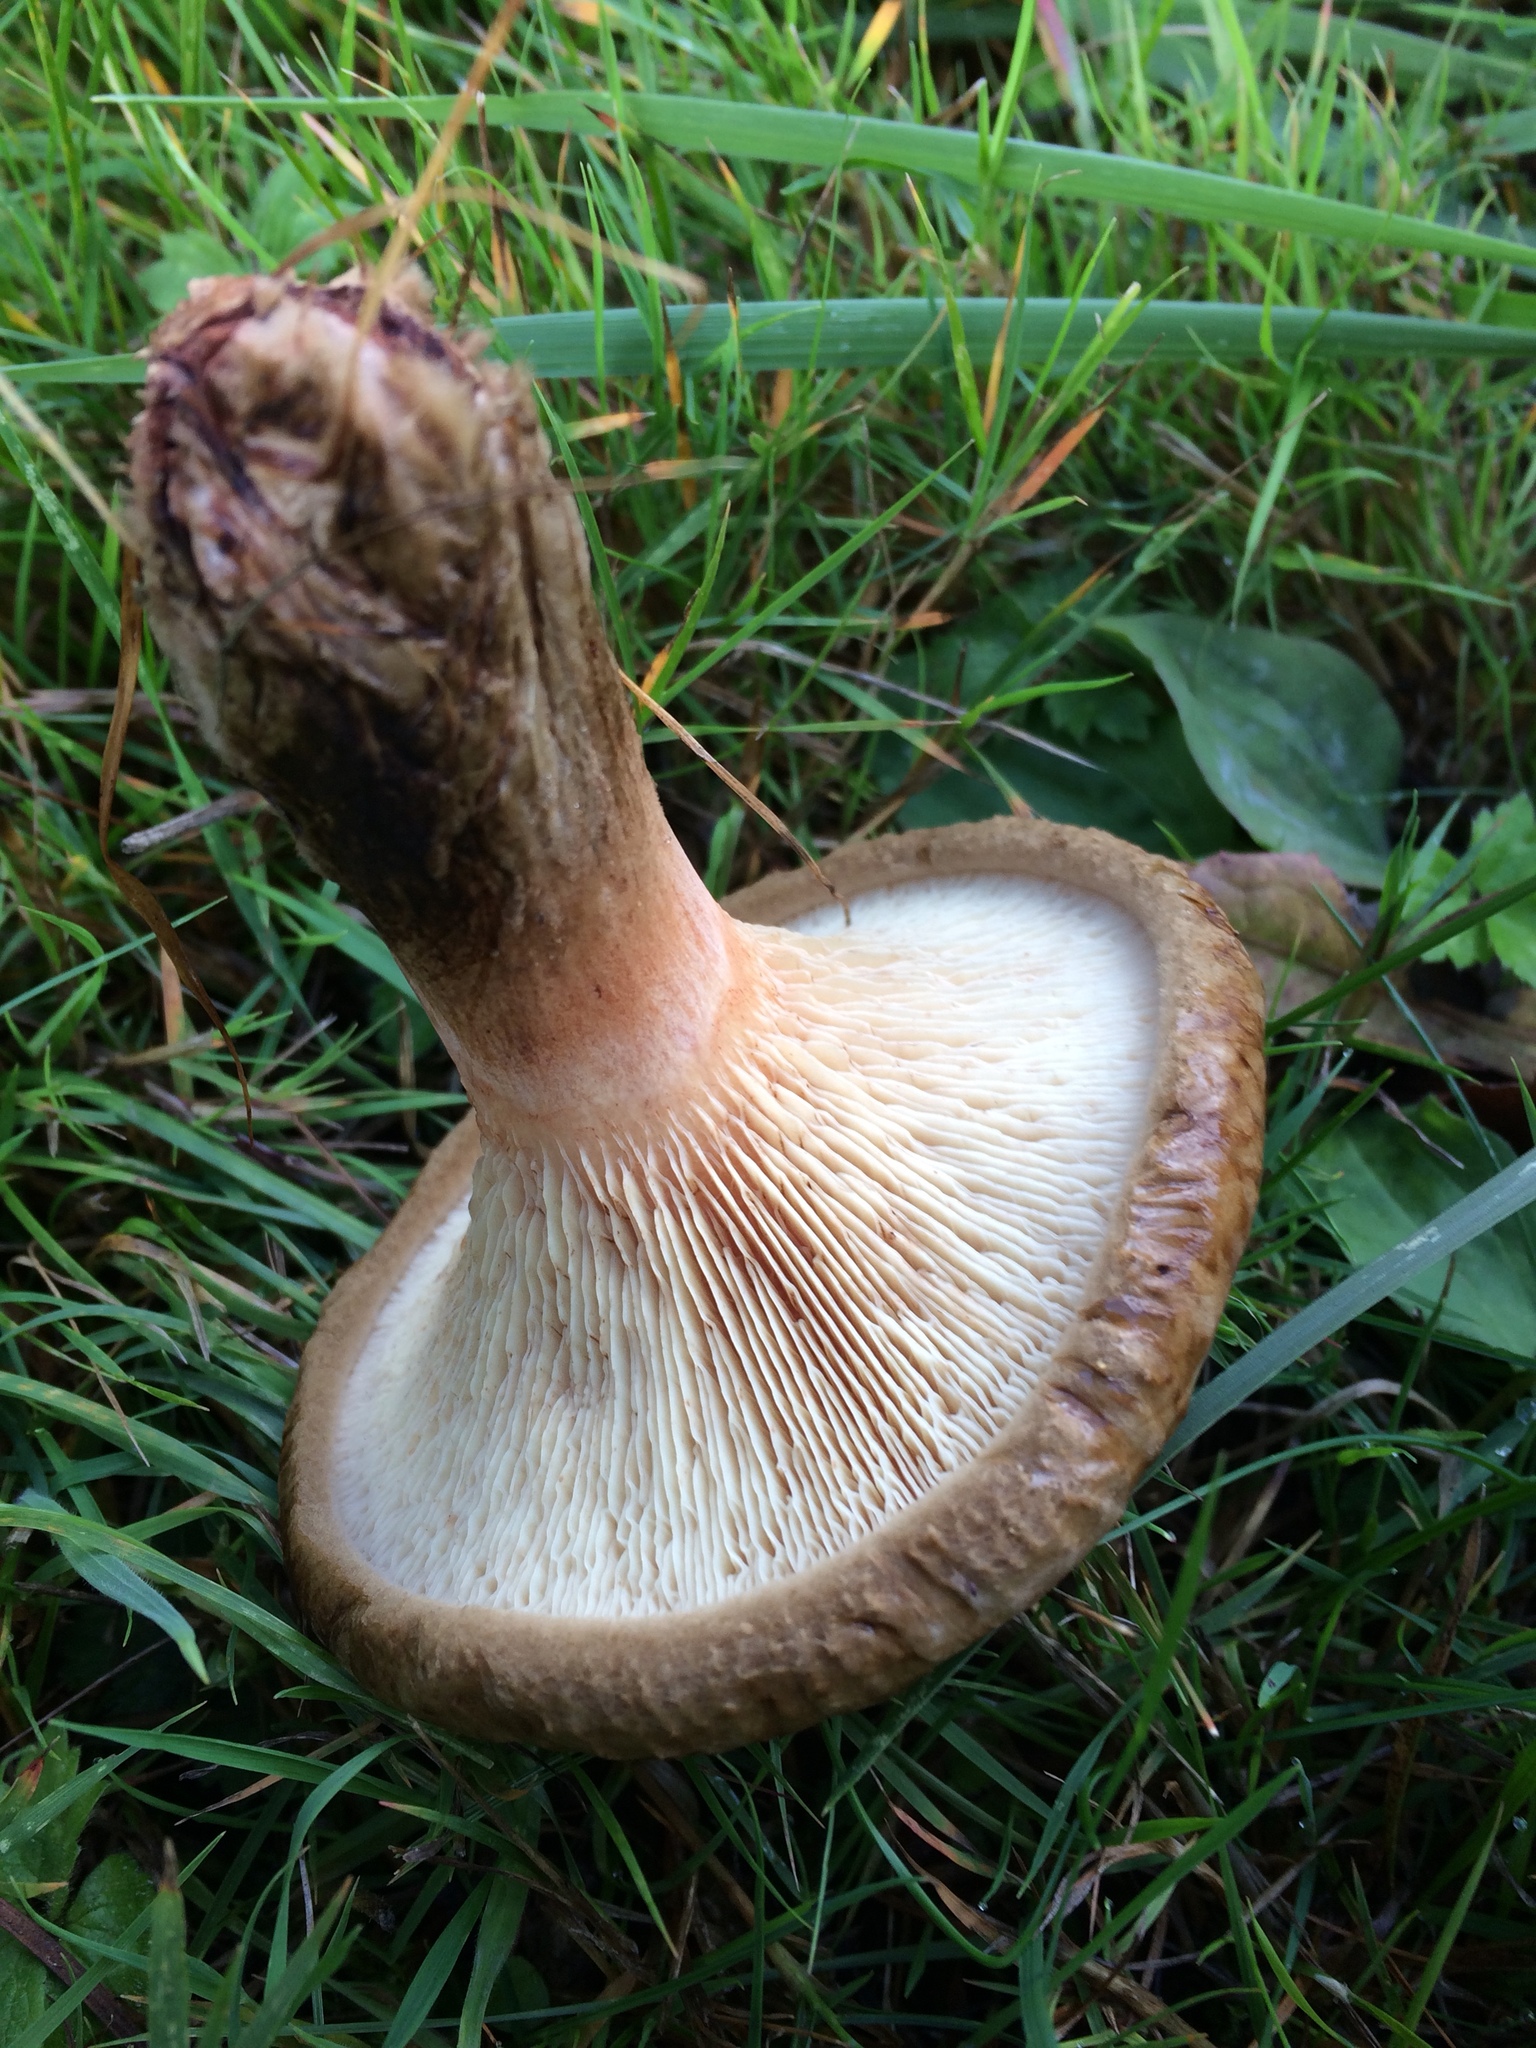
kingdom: Fungi
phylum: Basidiomycota
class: Agaricomycetes
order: Boletales
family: Paxillaceae
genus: Paxillus
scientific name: Paxillus involutus
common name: Brown roll rim
